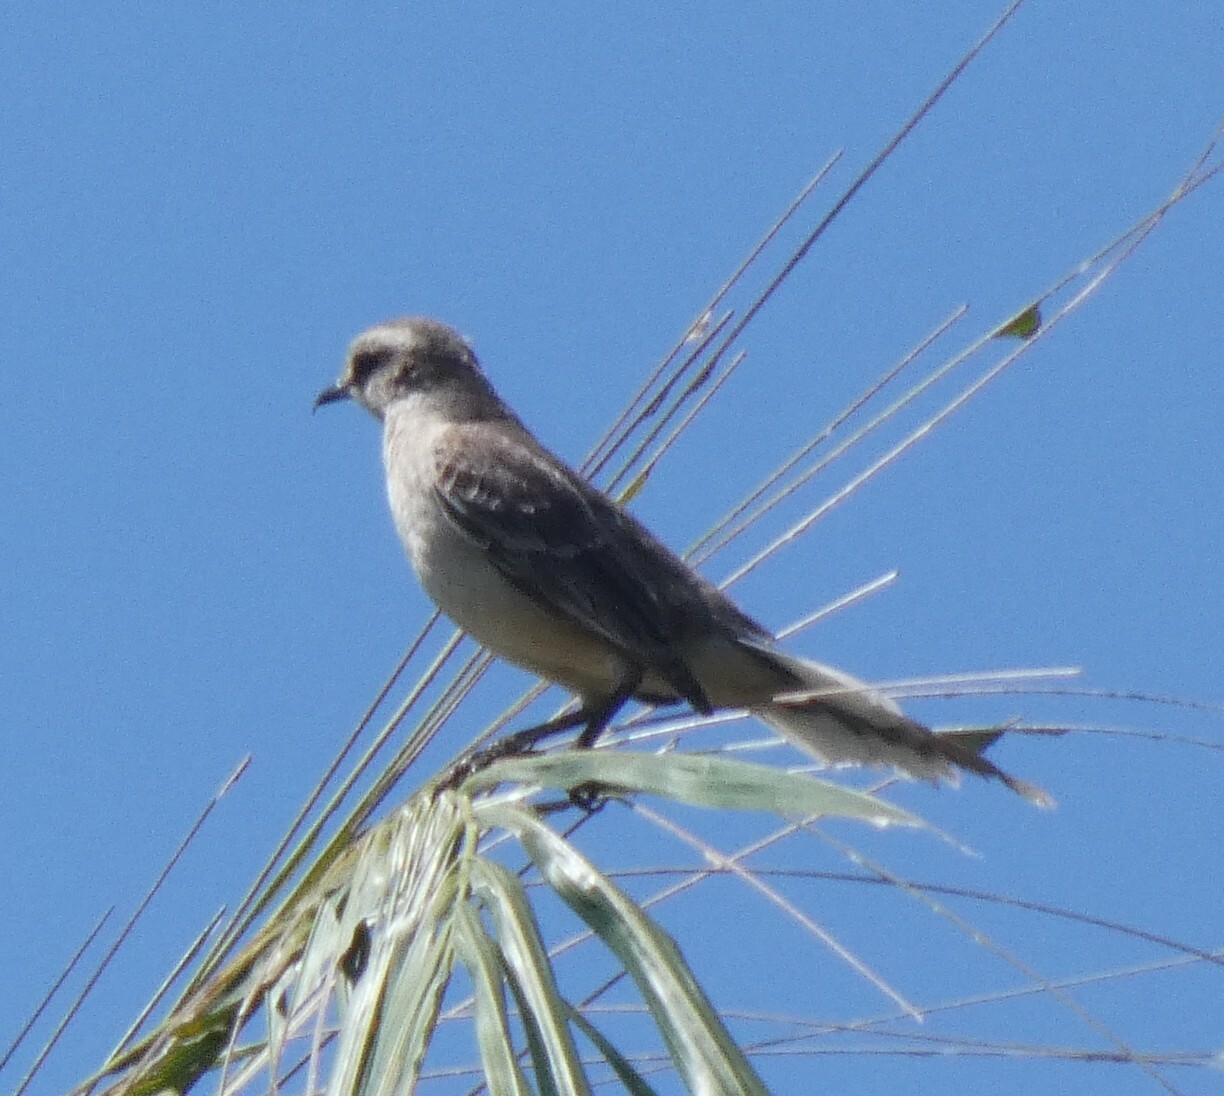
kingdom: Animalia
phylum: Chordata
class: Aves
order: Passeriformes
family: Mimidae
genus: Mimus
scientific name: Mimus saturninus
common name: Chalk-browed mockingbird
